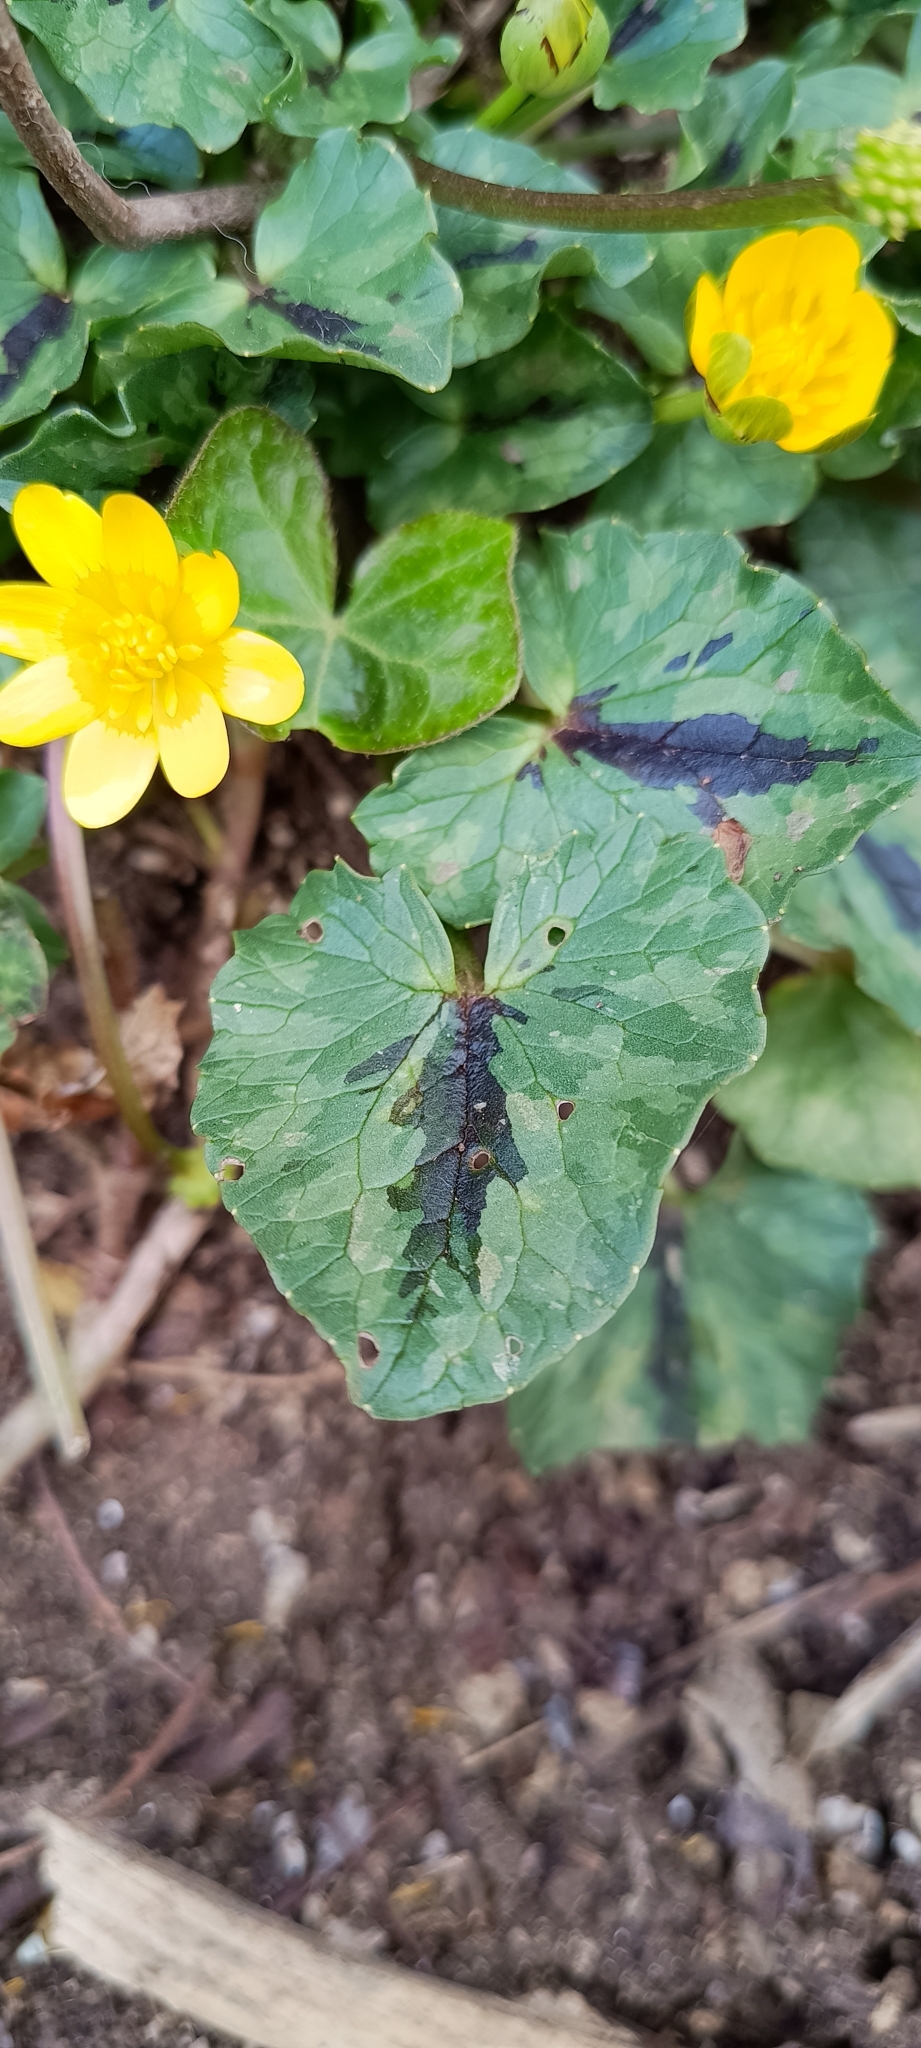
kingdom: Plantae
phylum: Tracheophyta
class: Magnoliopsida
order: Ranunculales
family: Ranunculaceae
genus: Ficaria
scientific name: Ficaria verna
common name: Lesser celandine
